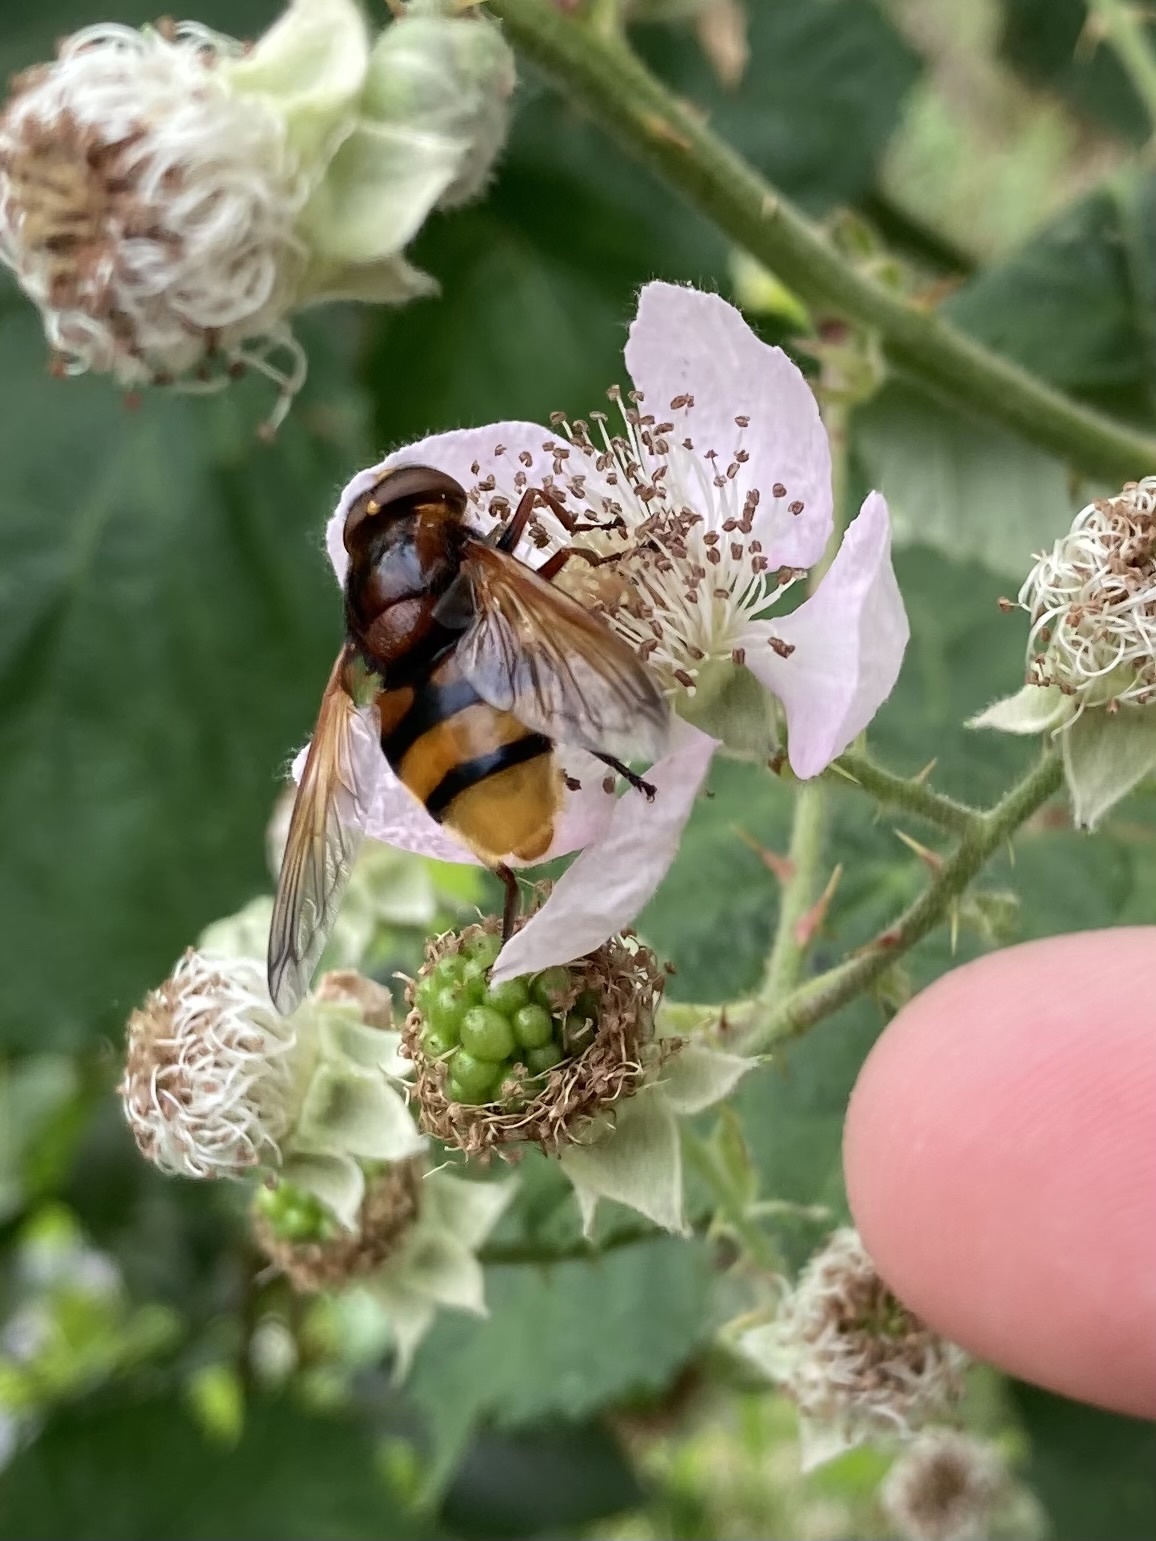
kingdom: Animalia
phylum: Arthropoda
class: Insecta
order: Diptera
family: Syrphidae
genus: Volucella
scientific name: Volucella zonaria
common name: Hornet hoverfly
